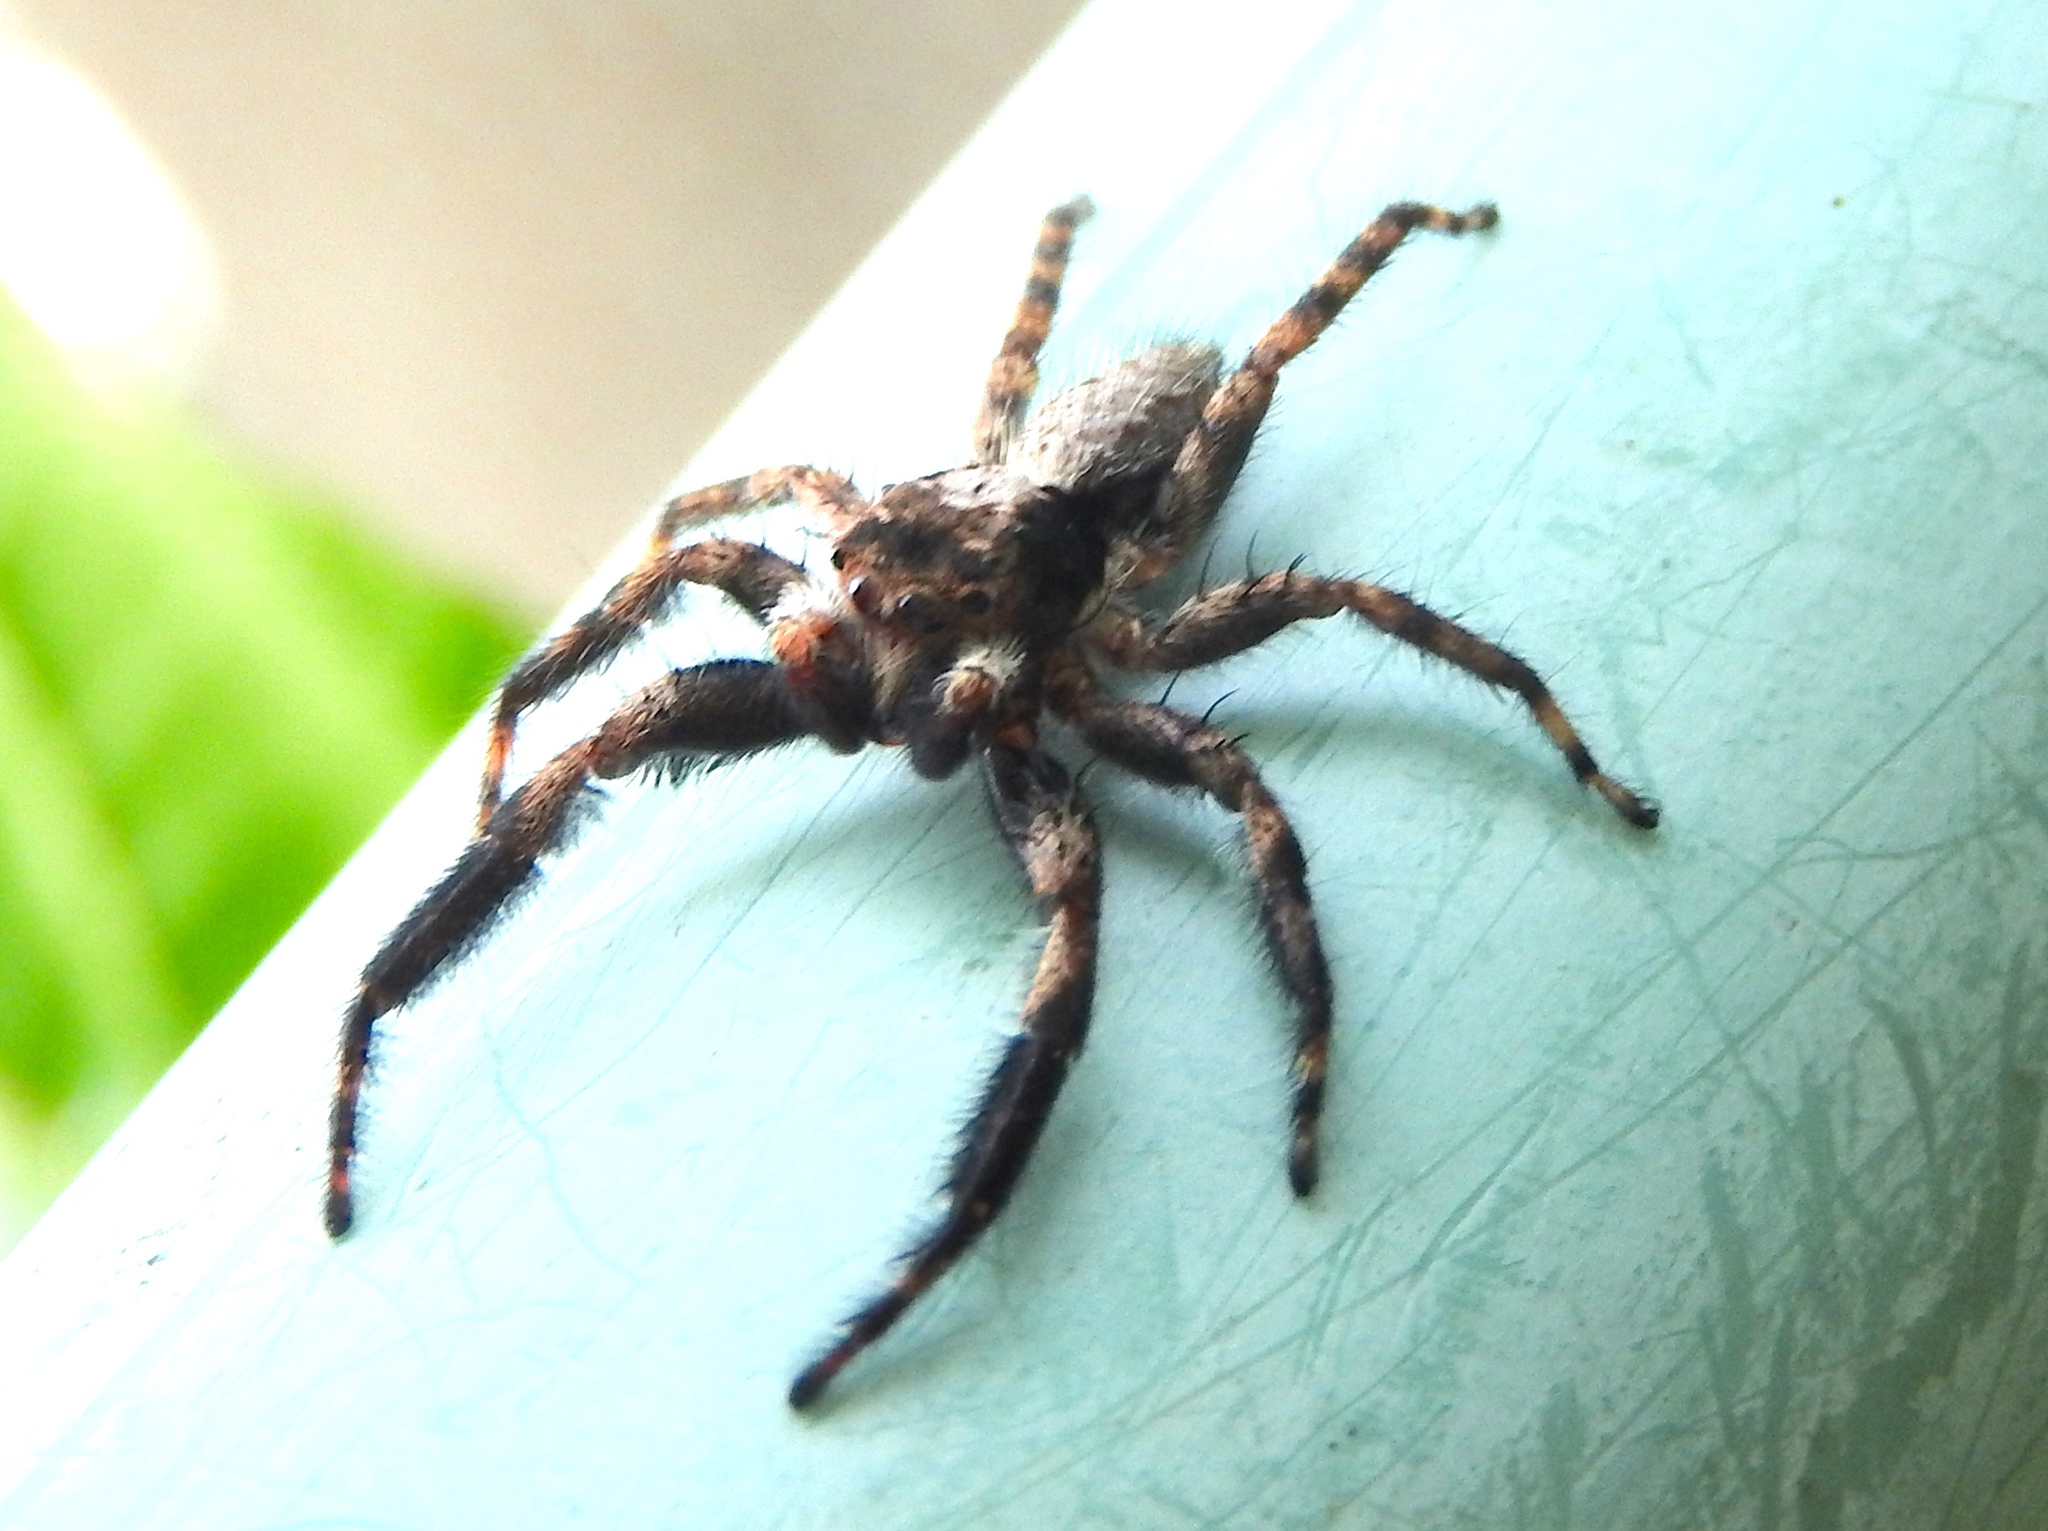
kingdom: Animalia
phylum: Arthropoda
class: Arachnida
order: Araneae
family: Salticidae
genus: Balmaceda
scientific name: Balmaceda
